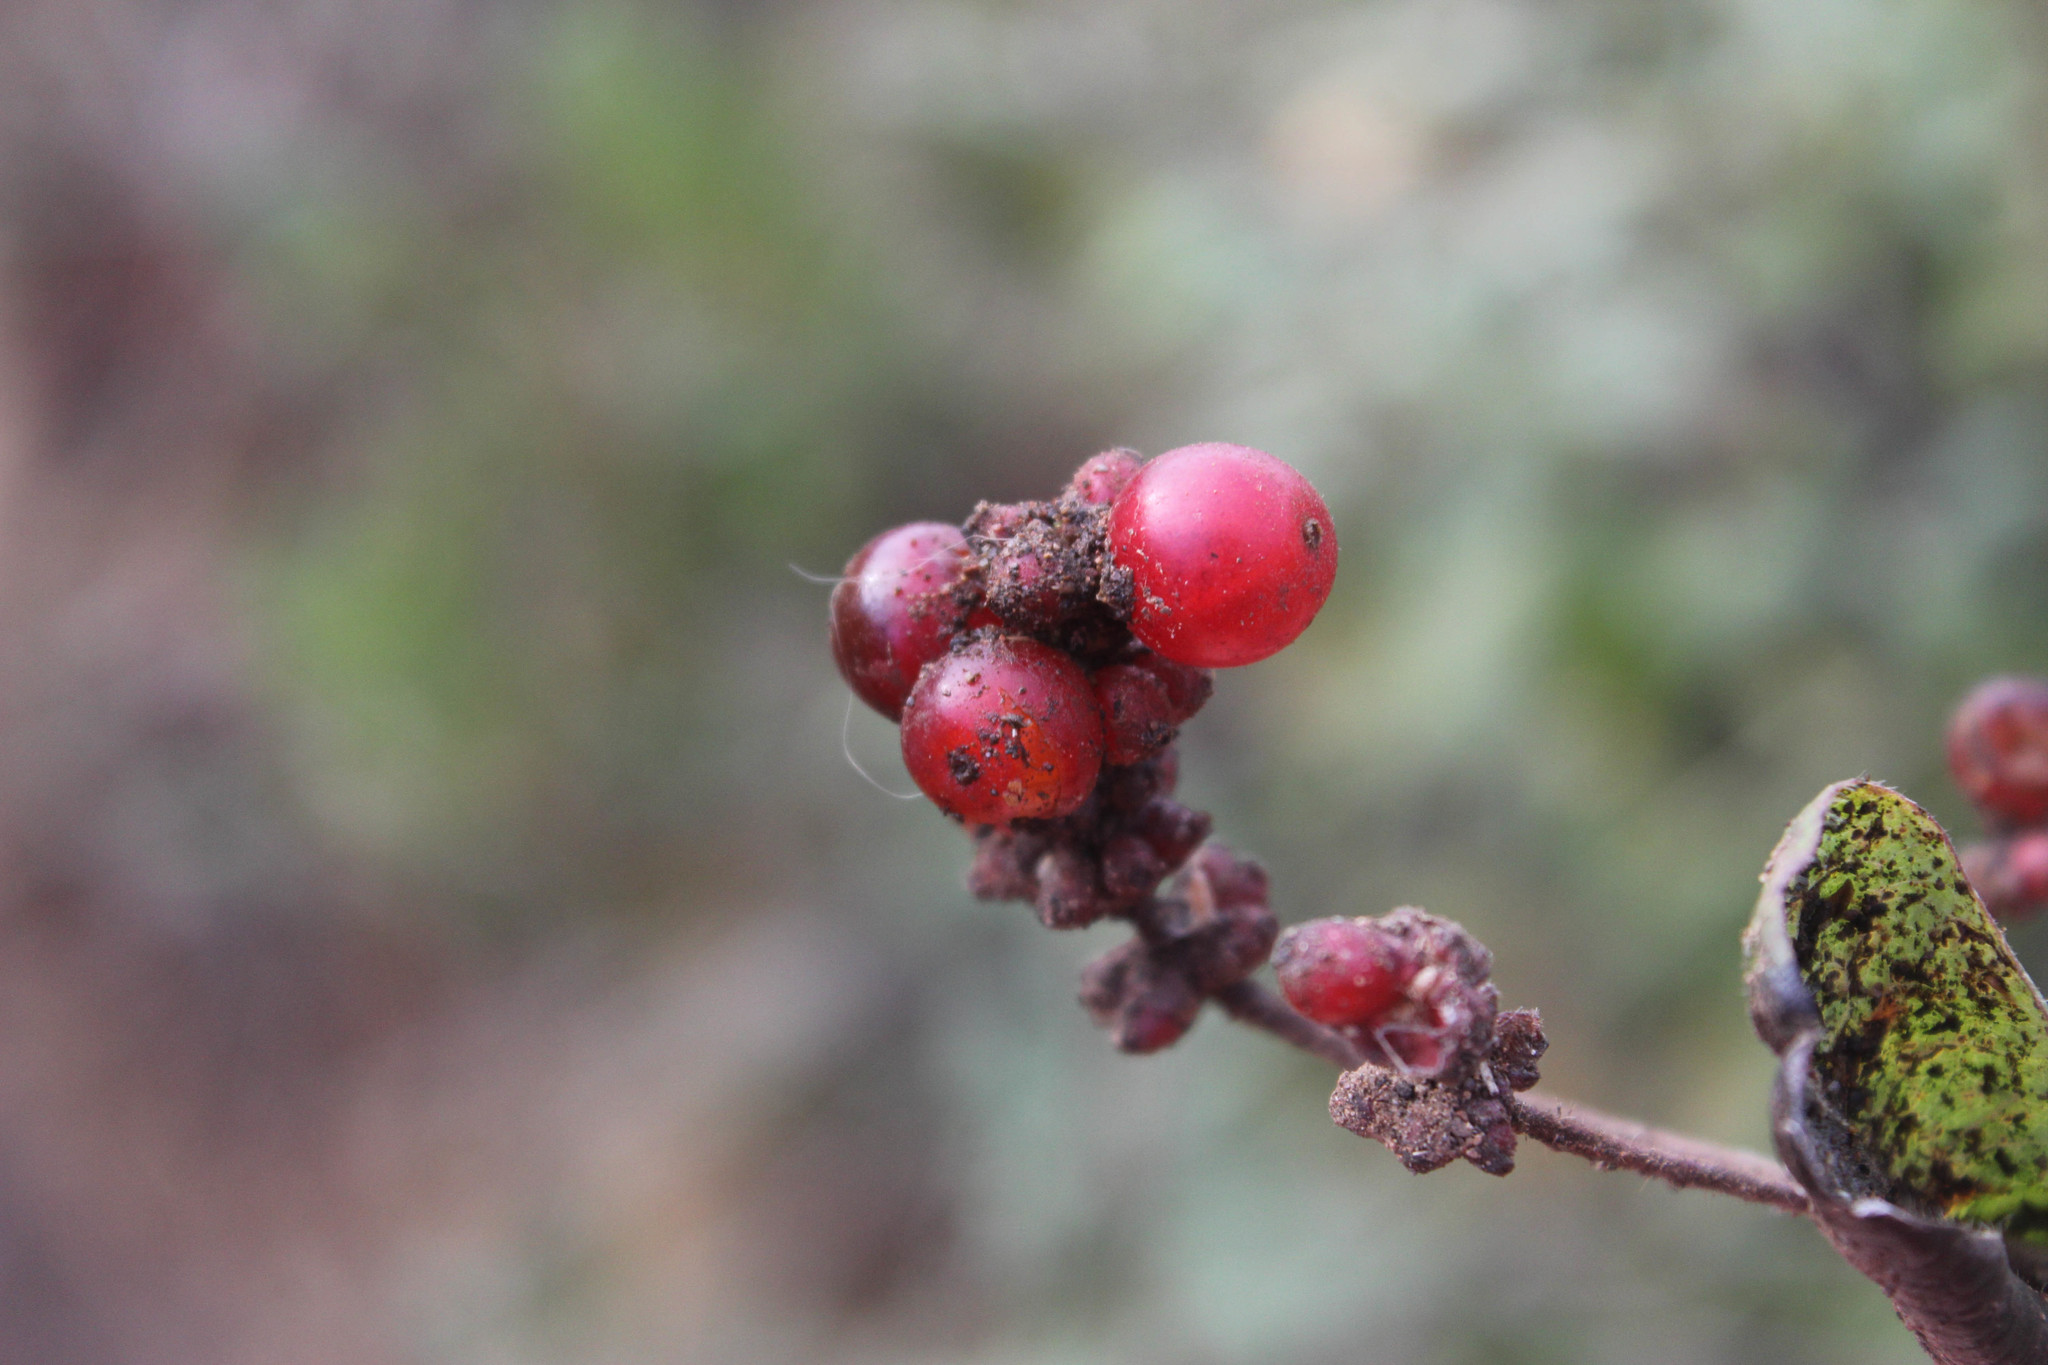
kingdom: Plantae
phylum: Tracheophyta
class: Magnoliopsida
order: Dipsacales
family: Caprifoliaceae
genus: Lonicera
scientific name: Lonicera hispidula
